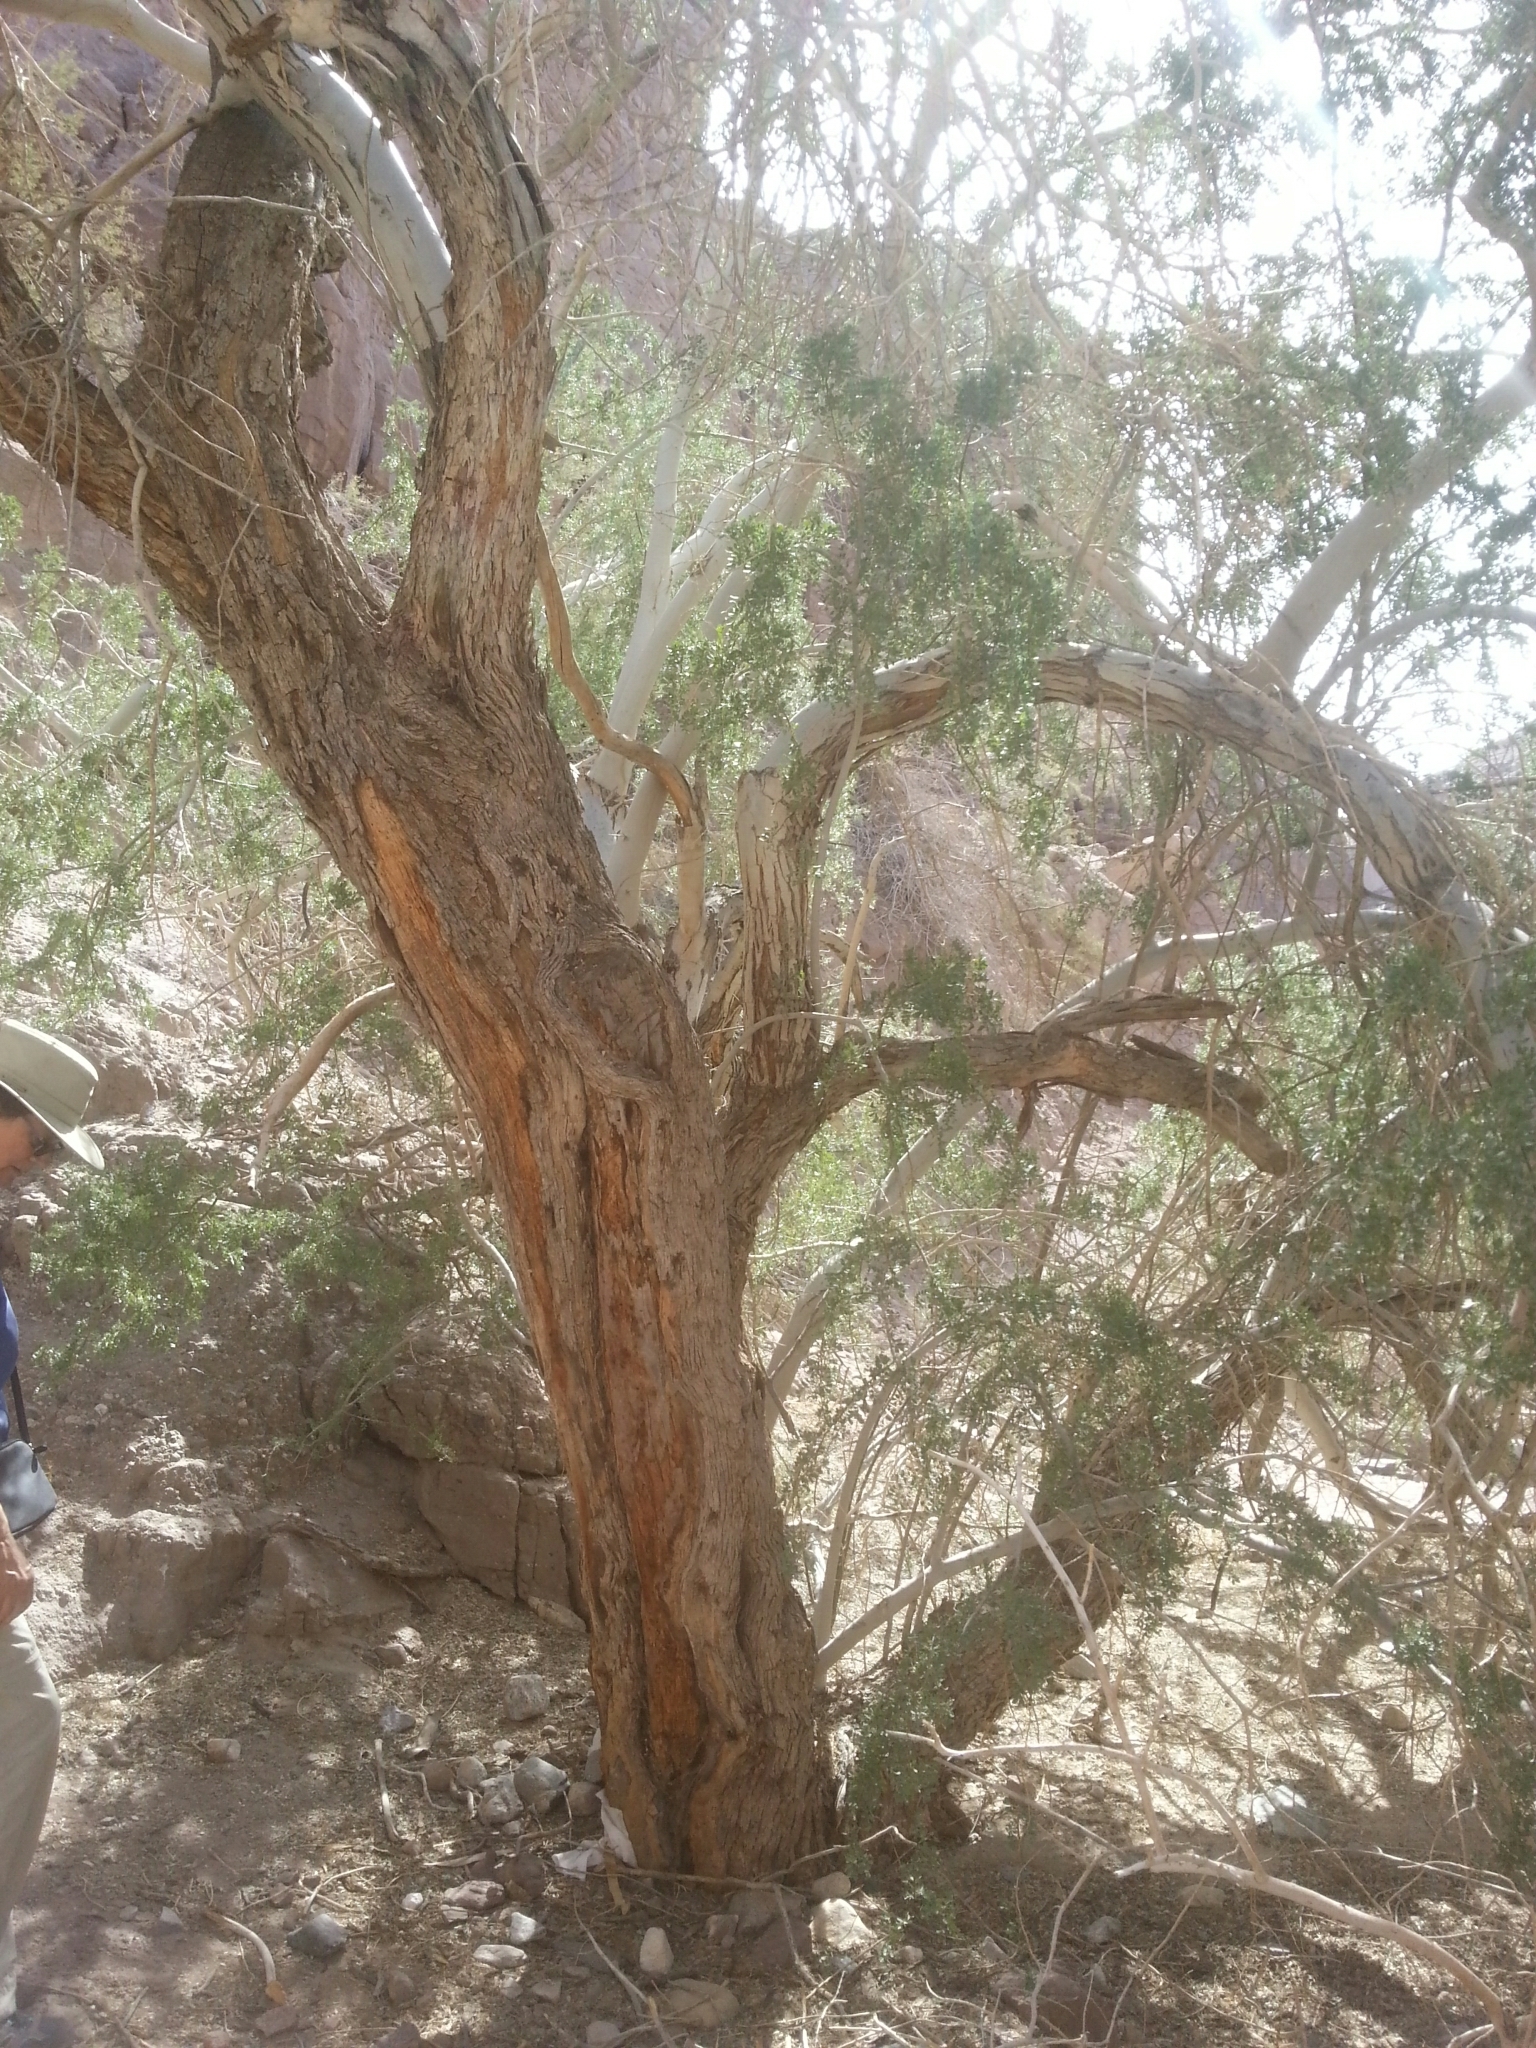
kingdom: Plantae
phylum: Tracheophyta
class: Magnoliopsida
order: Fabales
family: Fabaceae
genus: Olneya
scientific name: Olneya tesota
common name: Desert ironwood
